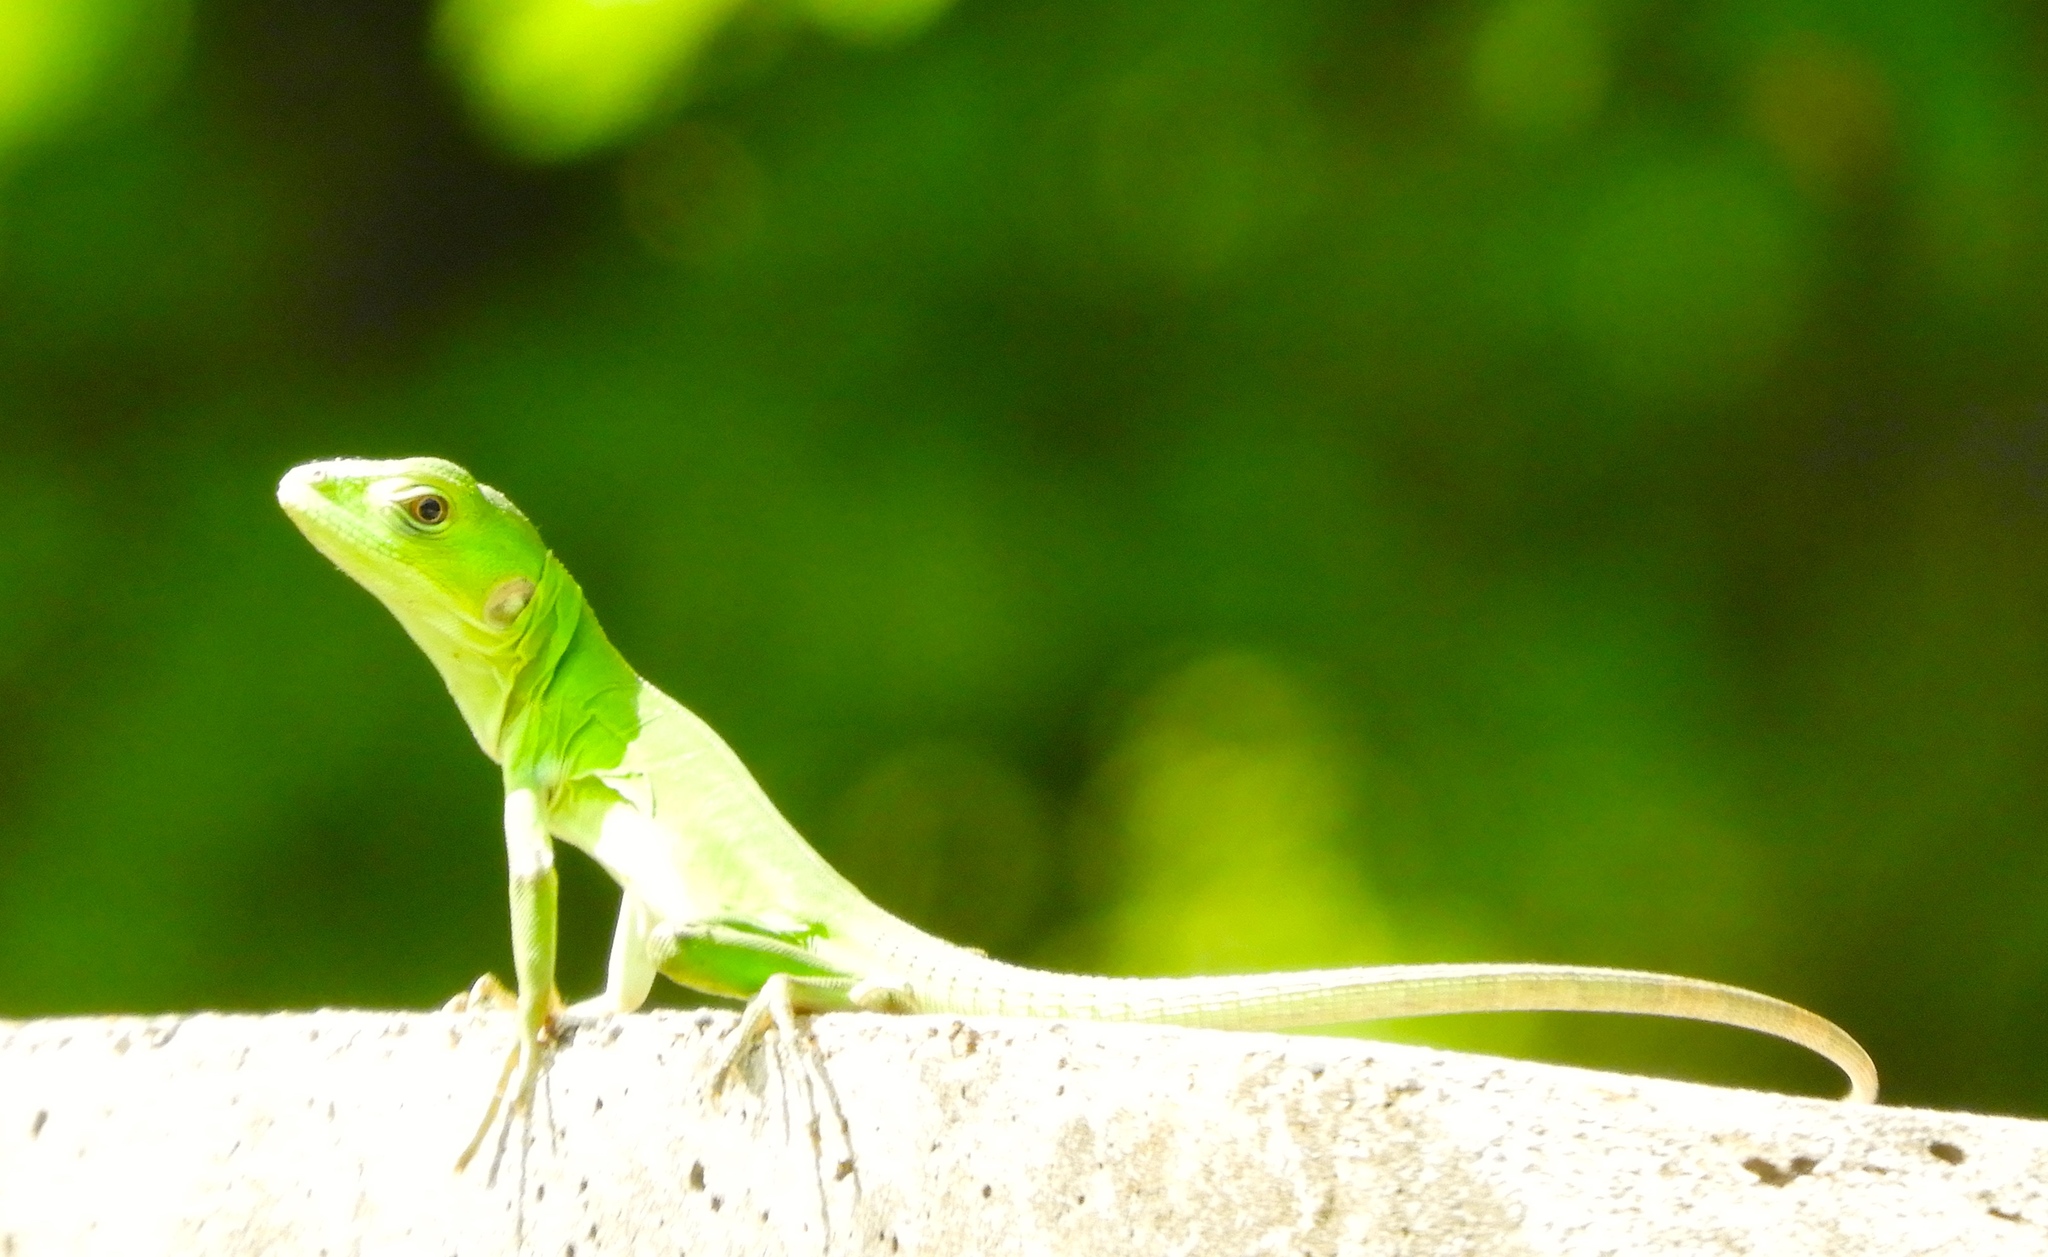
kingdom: Animalia
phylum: Chordata
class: Squamata
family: Iguanidae
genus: Ctenosaura
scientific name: Ctenosaura pectinata
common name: Guerreran spiny-tailed iguana
